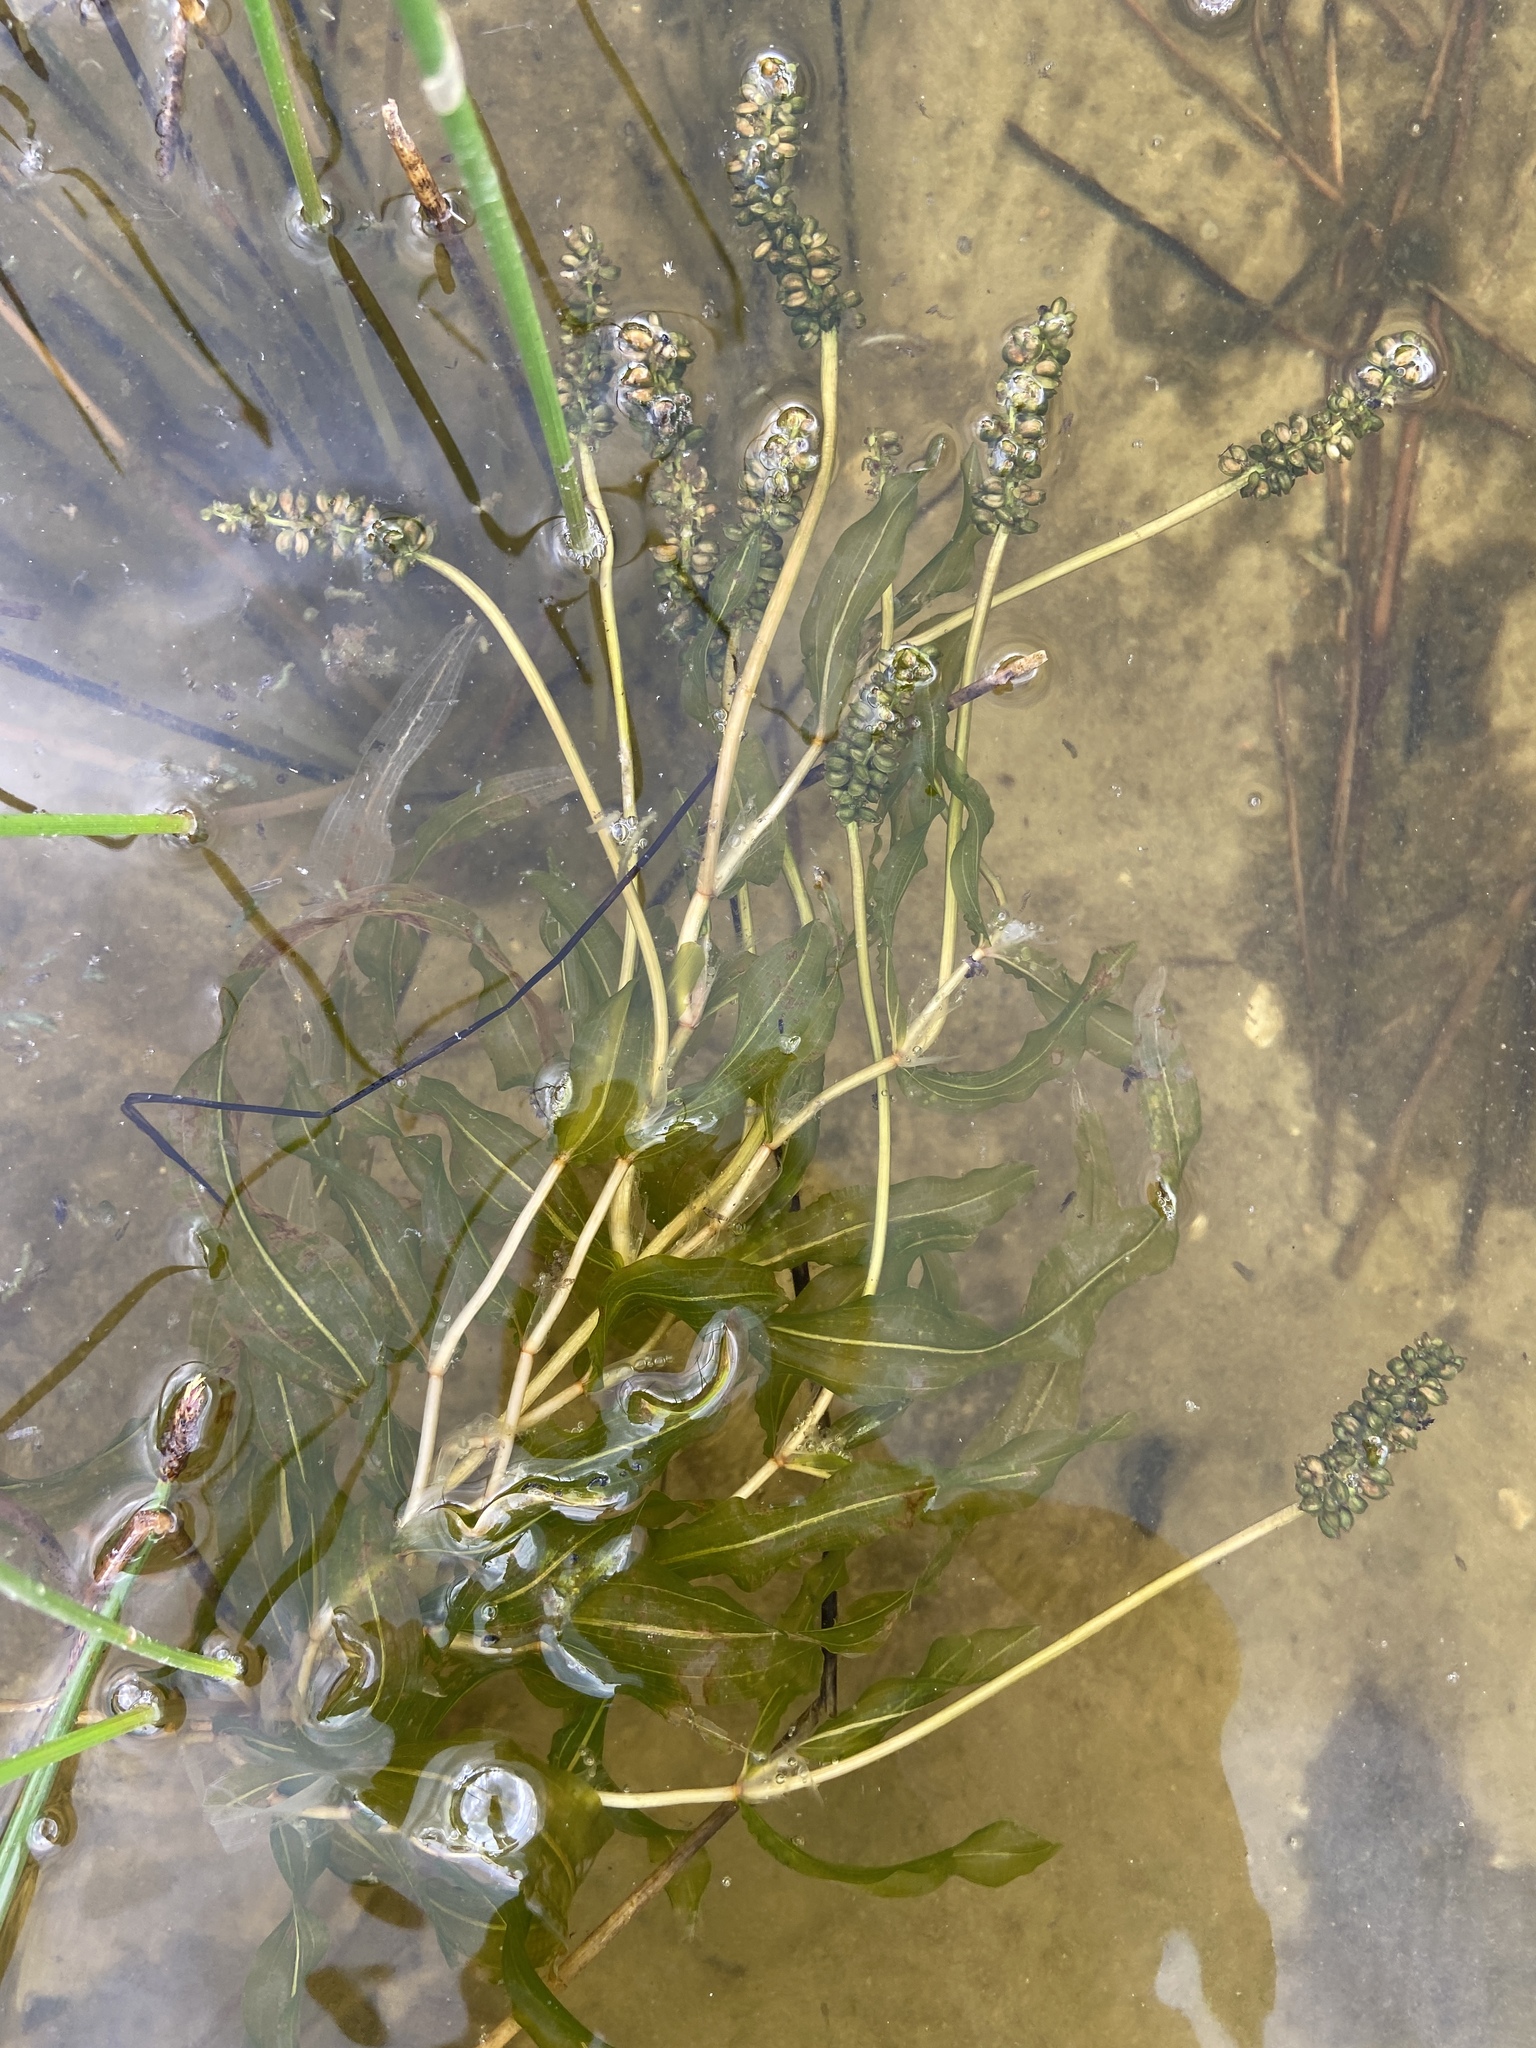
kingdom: Plantae
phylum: Tracheophyta
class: Liliopsida
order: Alismatales
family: Potamogetonaceae
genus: Potamogeton
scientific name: Potamogeton lucens
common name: Shining pondweed
